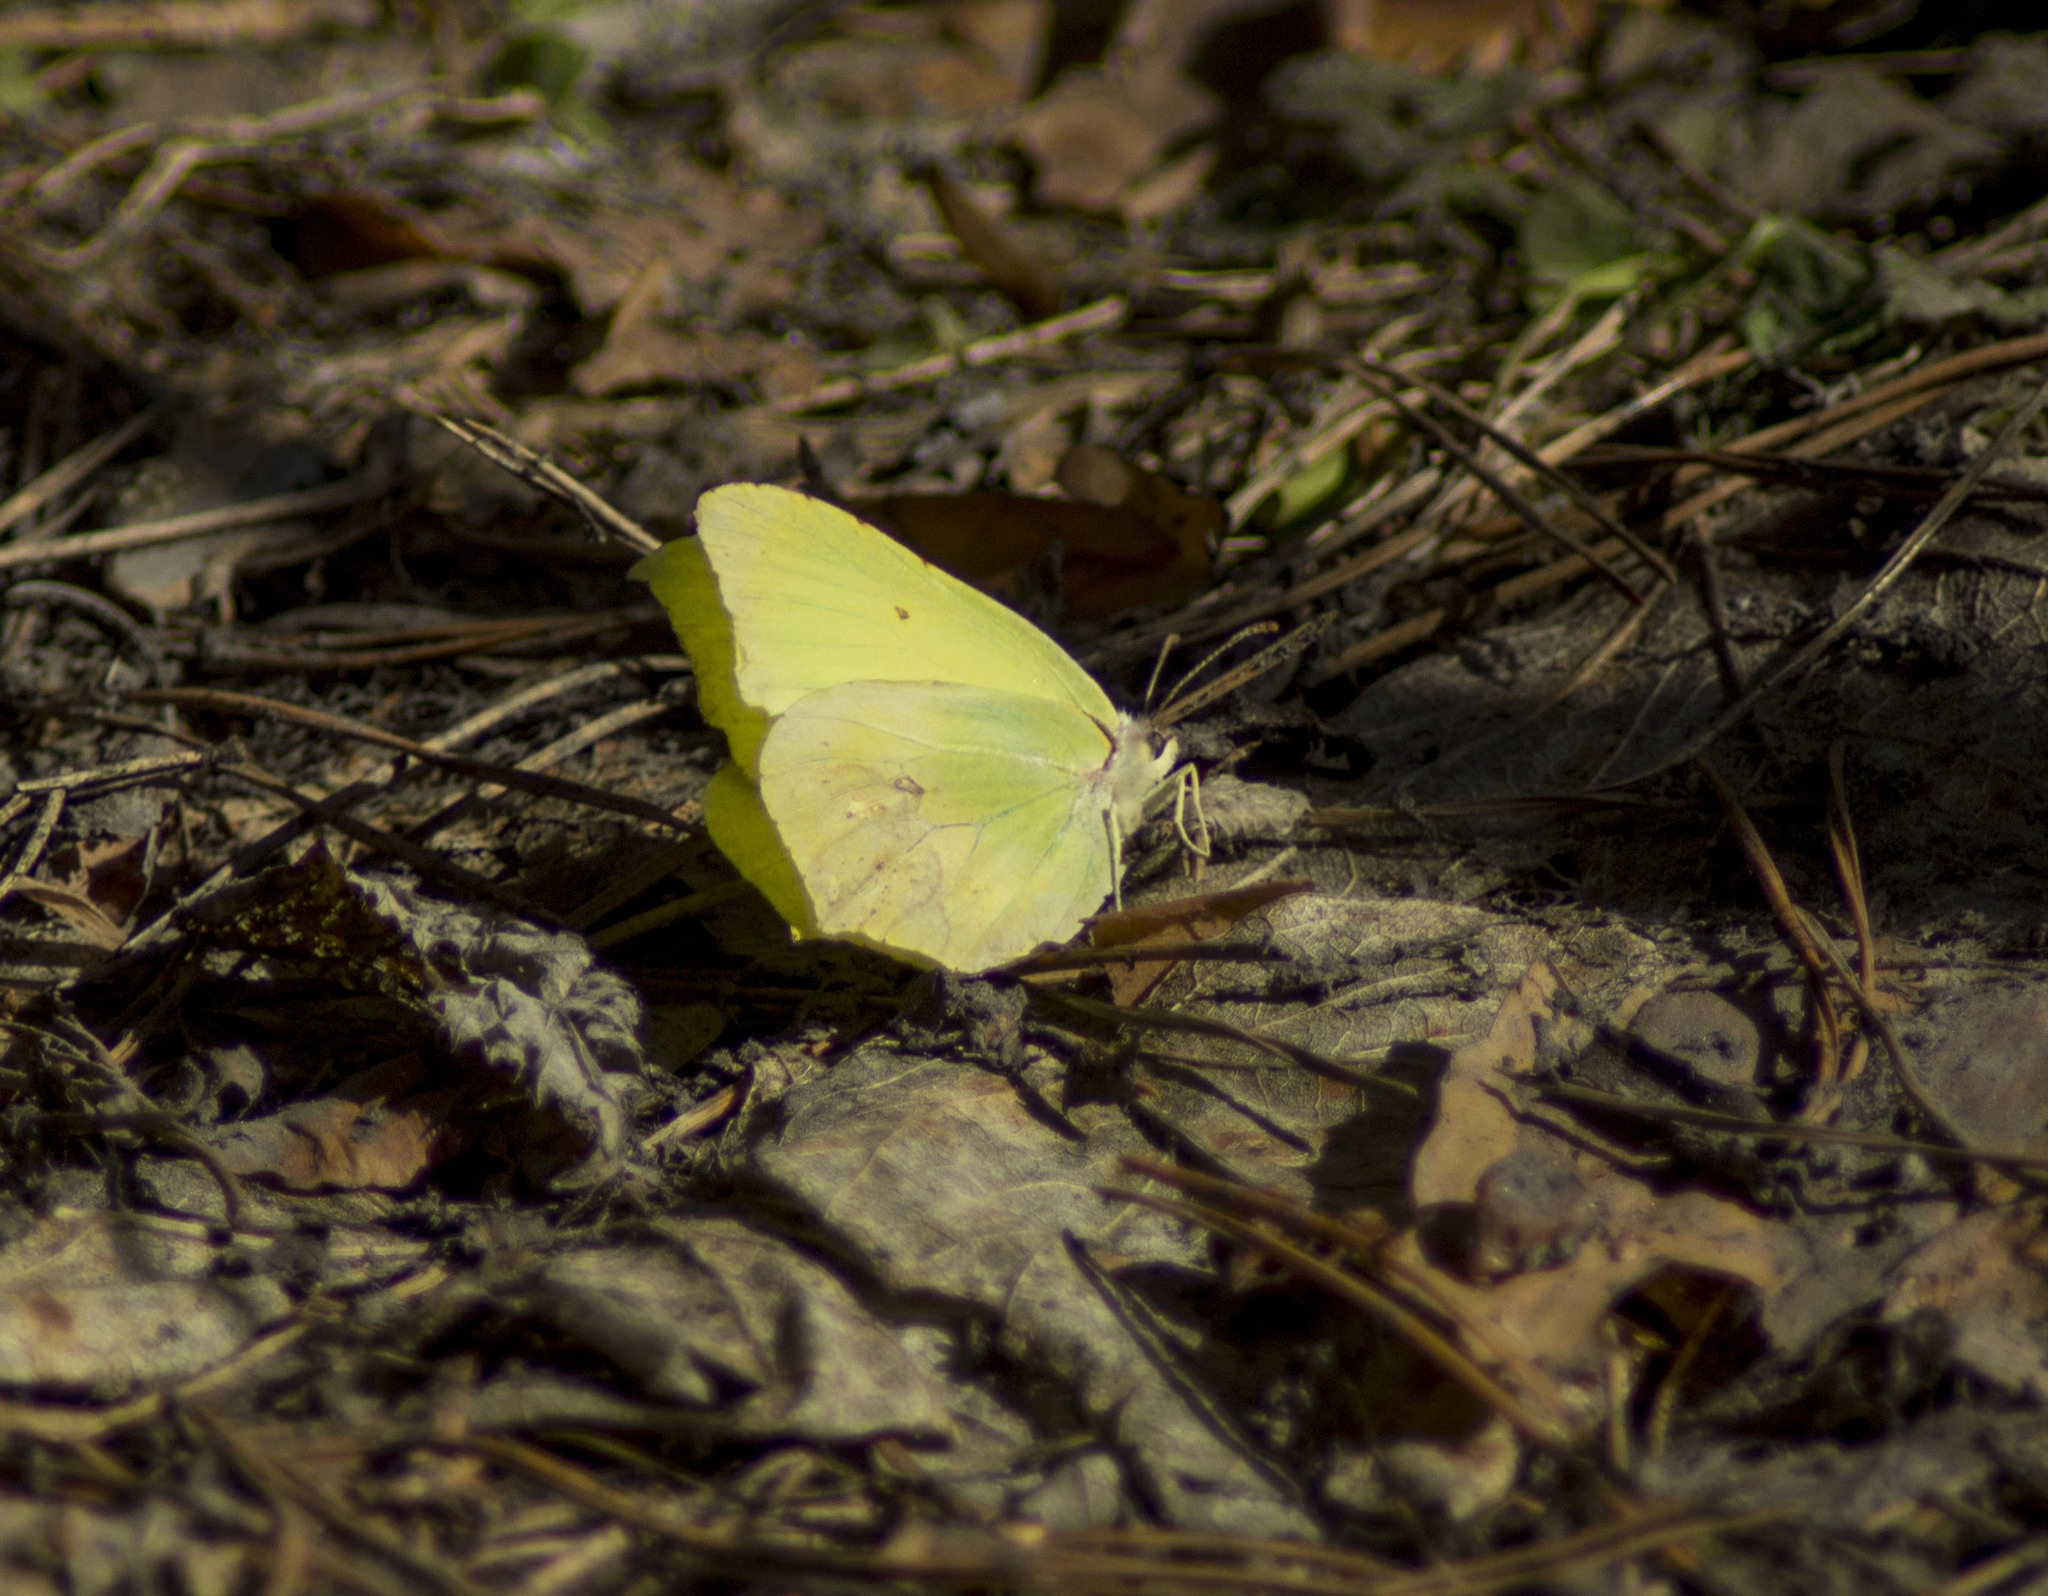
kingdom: Animalia
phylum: Arthropoda
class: Insecta
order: Lepidoptera
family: Pieridae
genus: Gonepteryx
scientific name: Gonepteryx rhamni
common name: Brimstone
